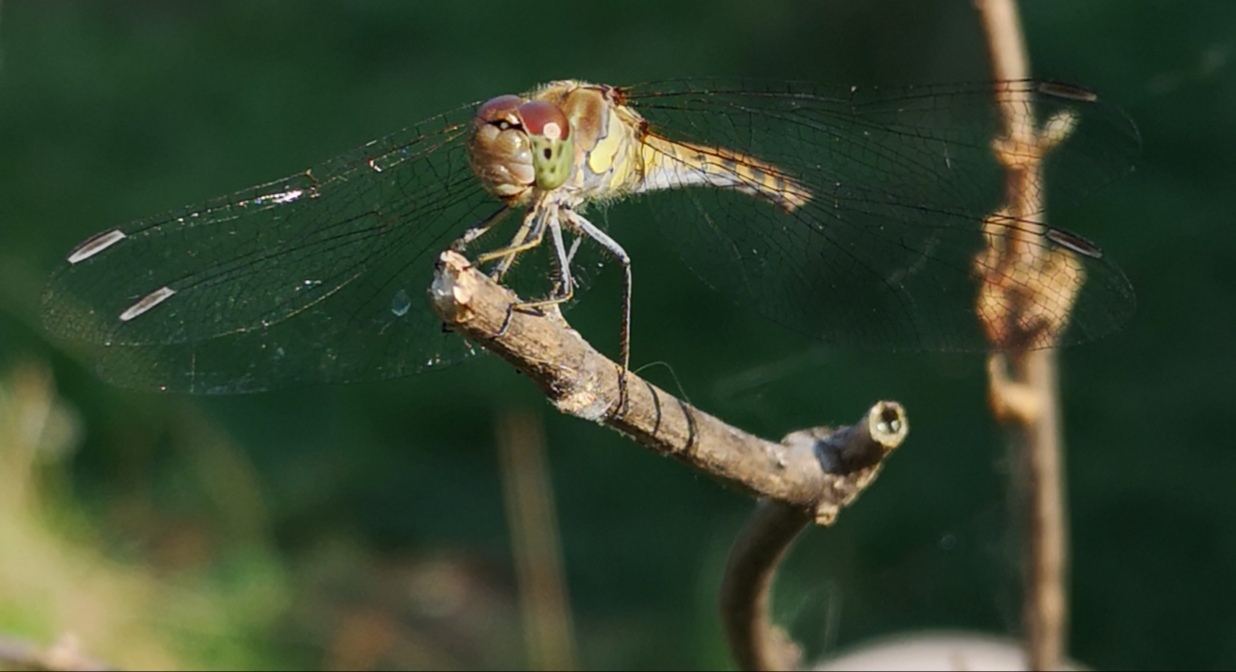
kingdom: Animalia
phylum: Arthropoda
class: Insecta
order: Odonata
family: Libellulidae
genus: Sympetrum
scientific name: Sympetrum striolatum
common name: Common darter
